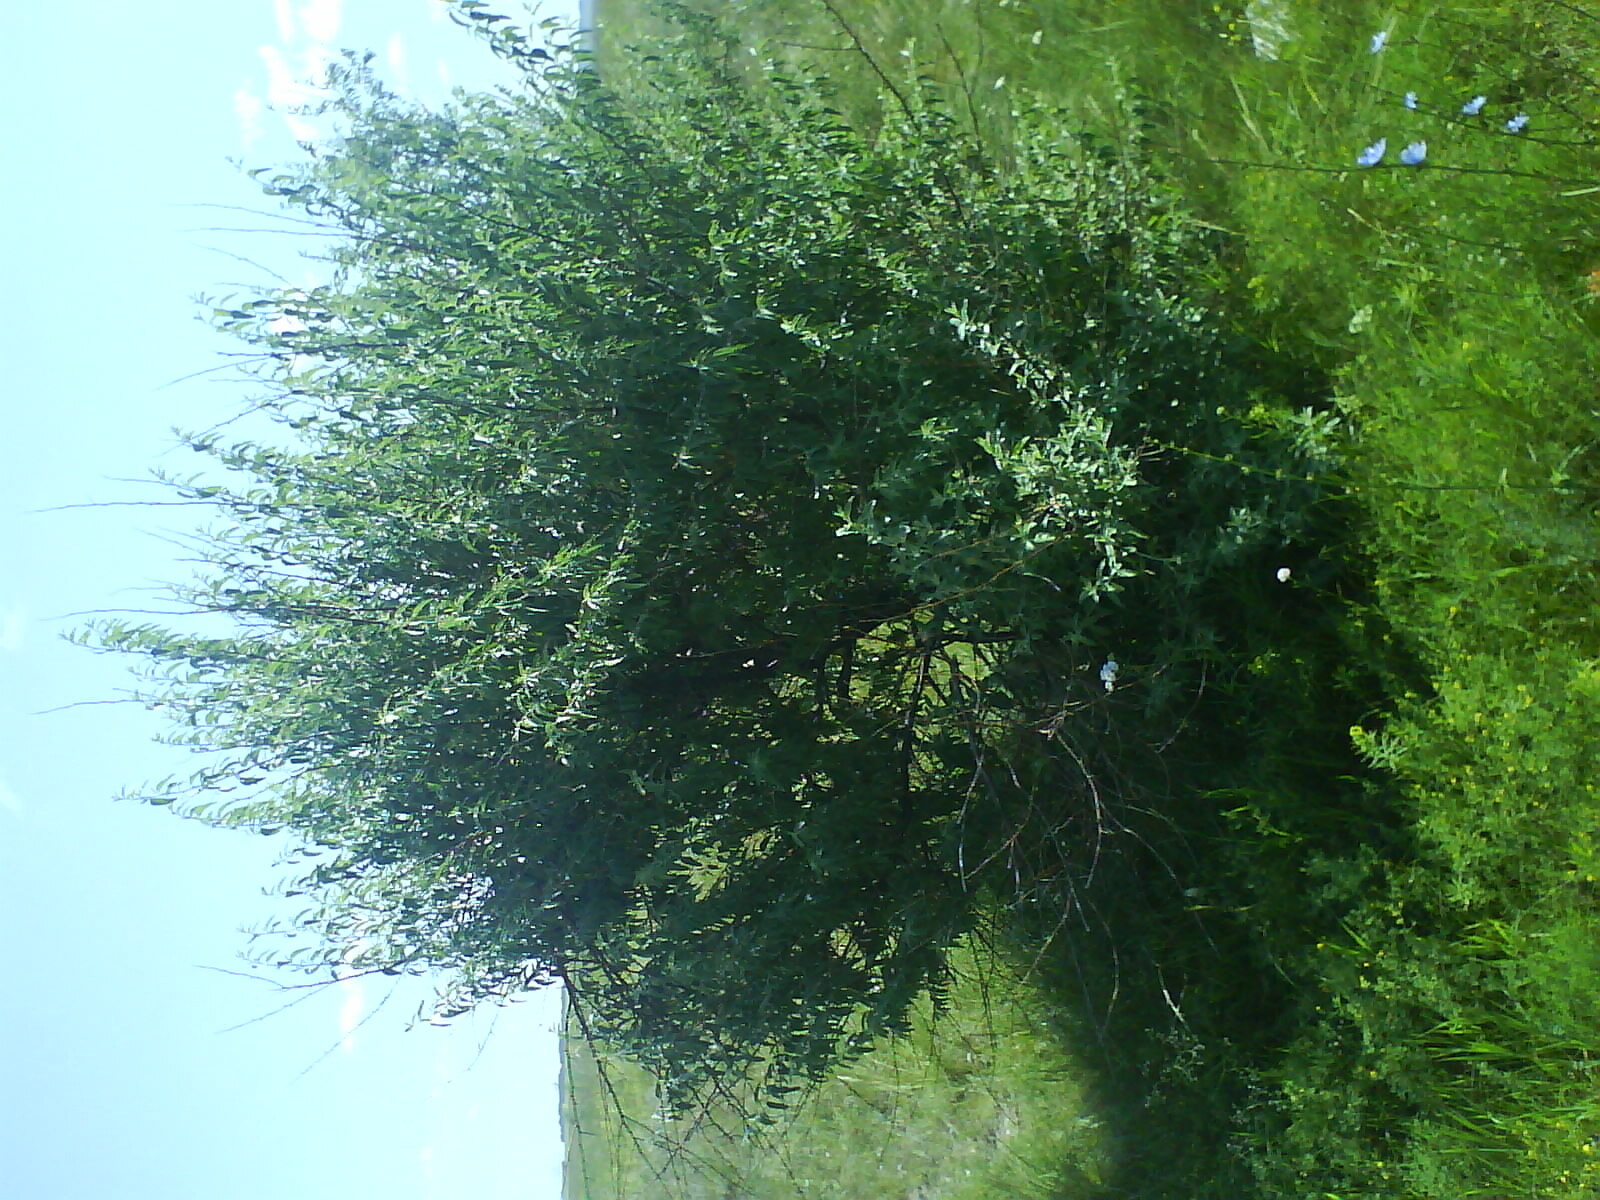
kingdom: Plantae
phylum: Tracheophyta
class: Magnoliopsida
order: Rosales
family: Elaeagnaceae
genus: Elaeagnus
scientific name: Elaeagnus angustifolia
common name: Russian olive
